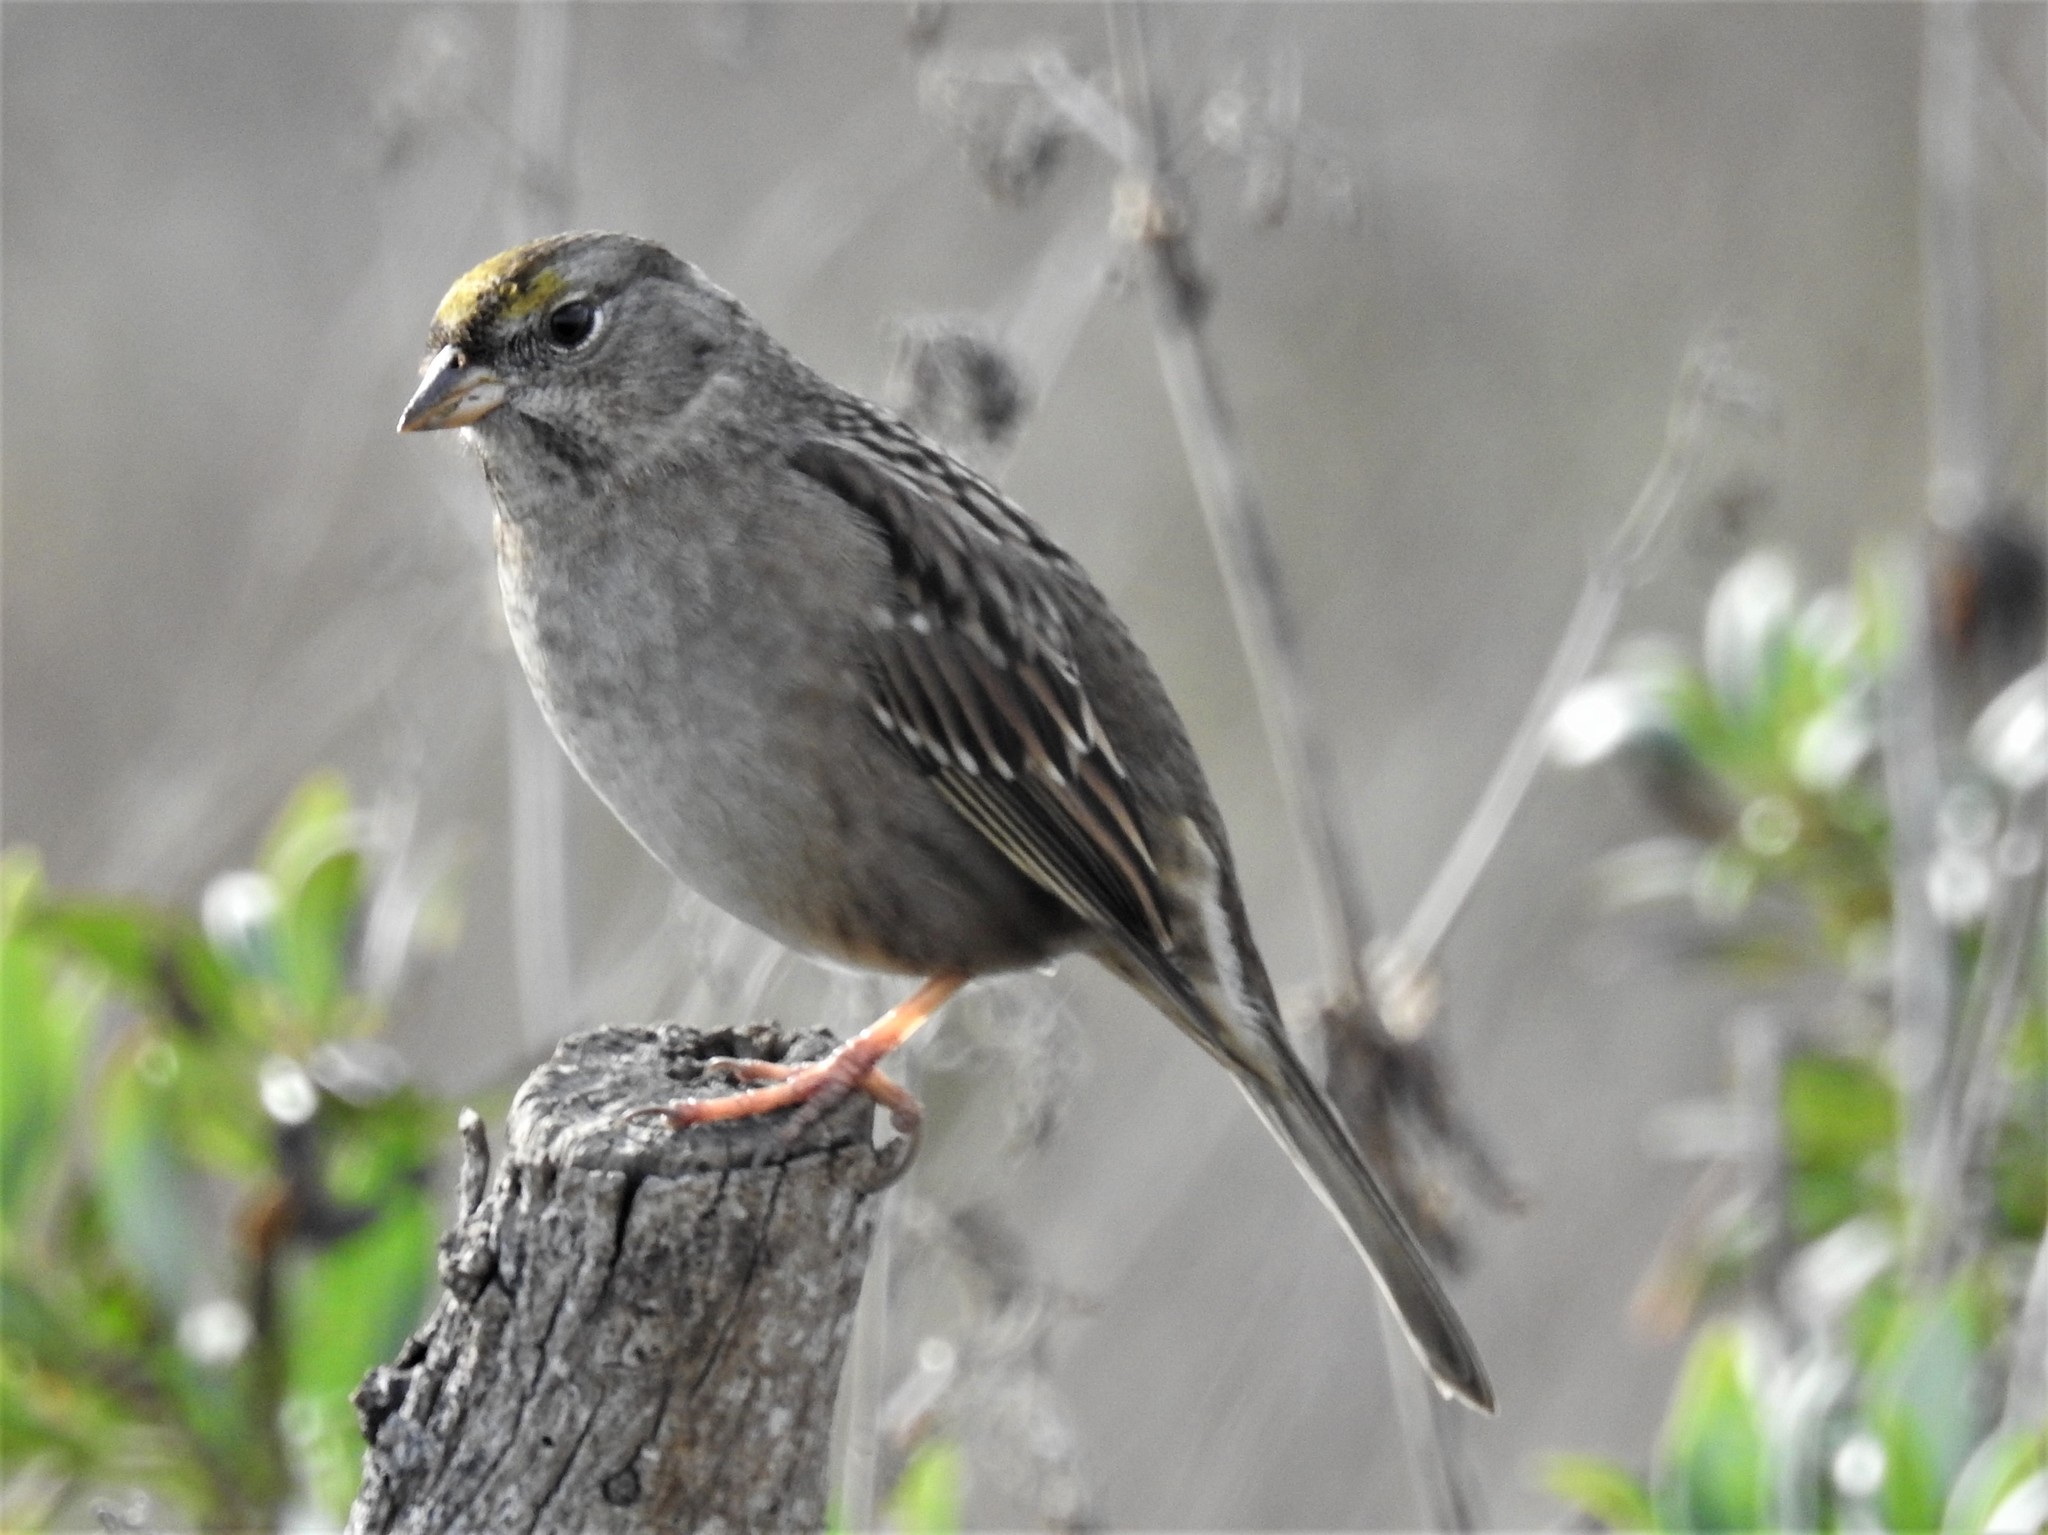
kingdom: Animalia
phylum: Chordata
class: Aves
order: Passeriformes
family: Passerellidae
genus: Zonotrichia
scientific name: Zonotrichia atricapilla
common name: Golden-crowned sparrow
